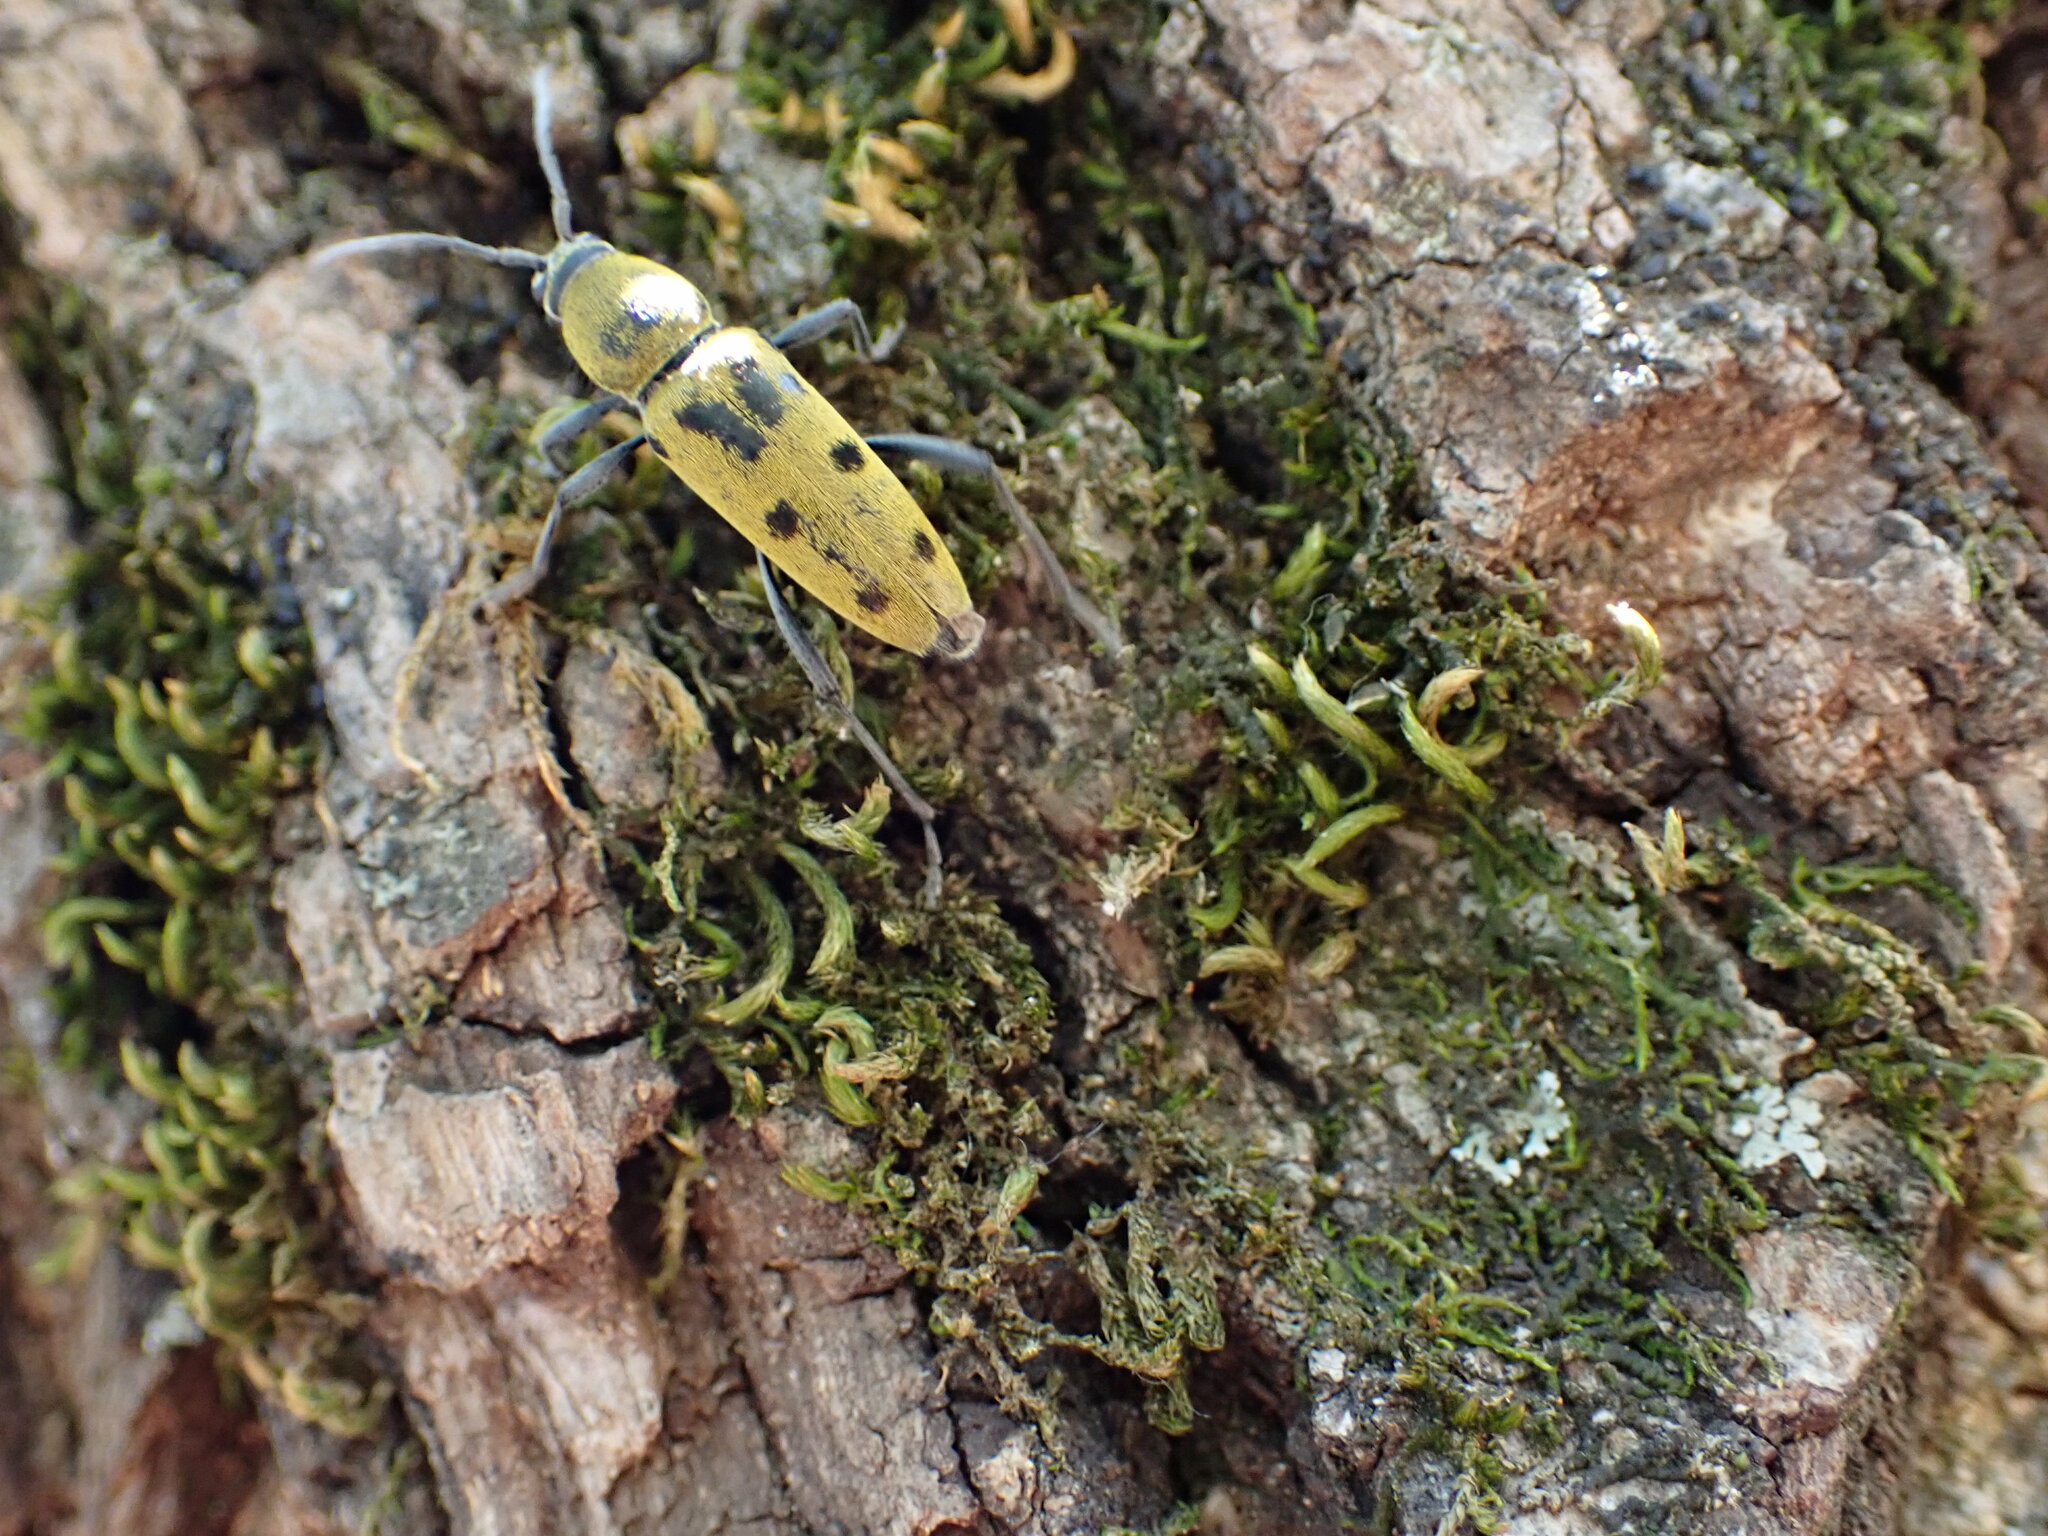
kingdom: Animalia
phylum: Arthropoda
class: Insecta
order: Coleoptera
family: Cerambycidae
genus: Chlorophorus
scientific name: Chlorophorus glabromaculatus
